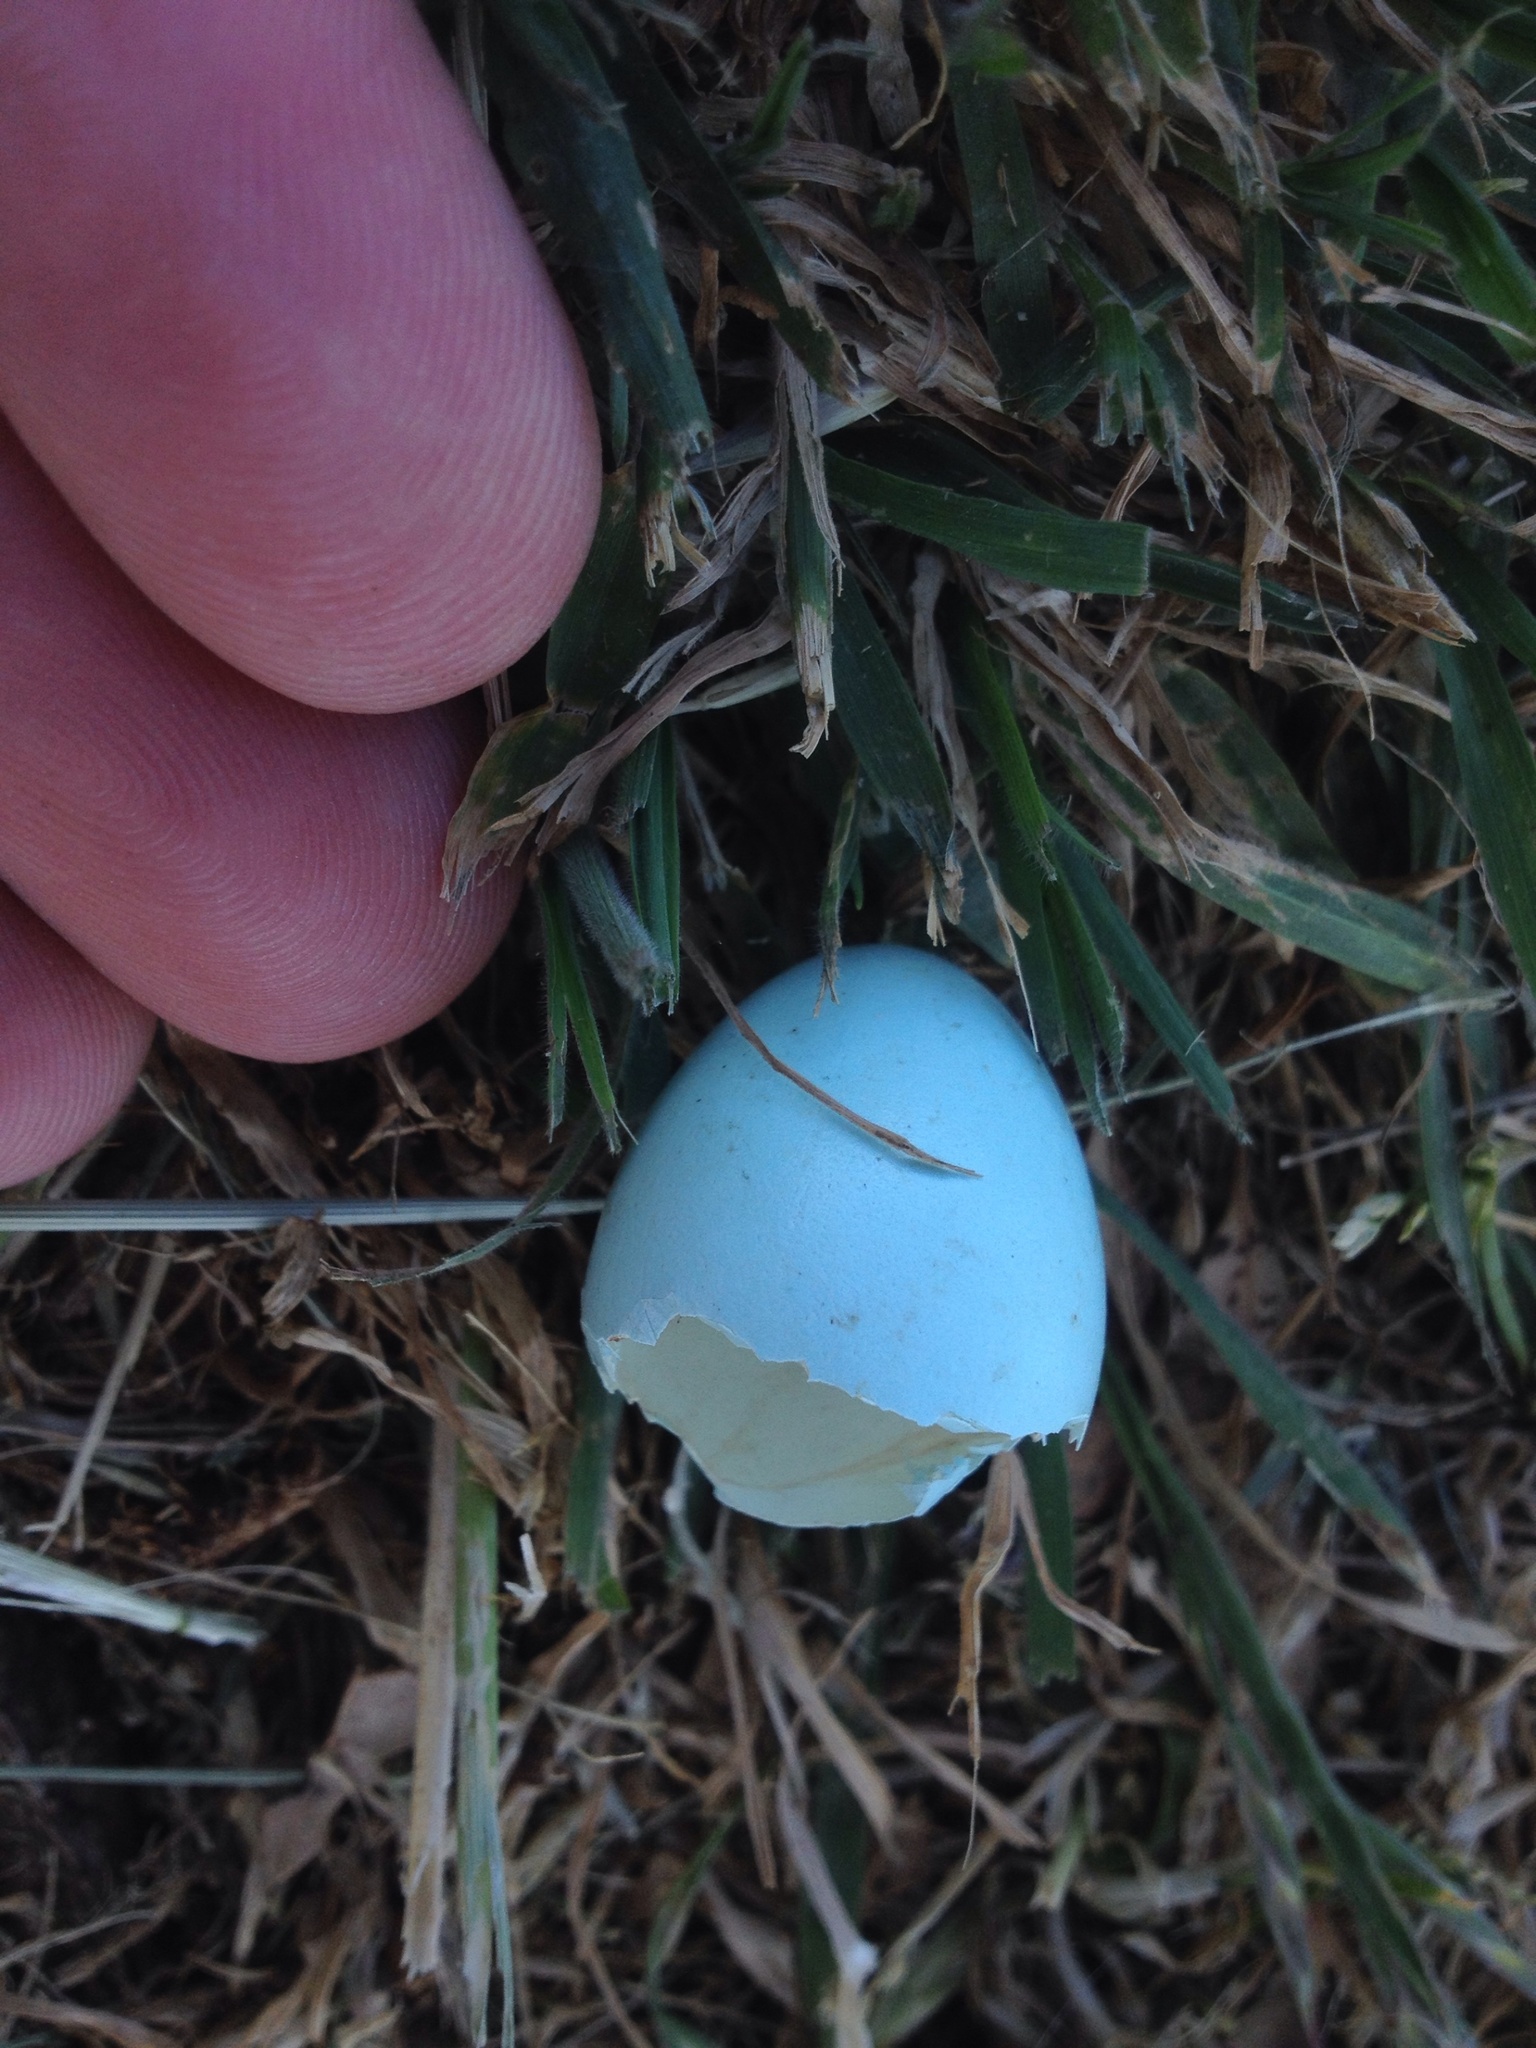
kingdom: Animalia
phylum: Chordata
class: Aves
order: Passeriformes
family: Sturnidae
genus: Sturnus
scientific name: Sturnus vulgaris
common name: Common starling
